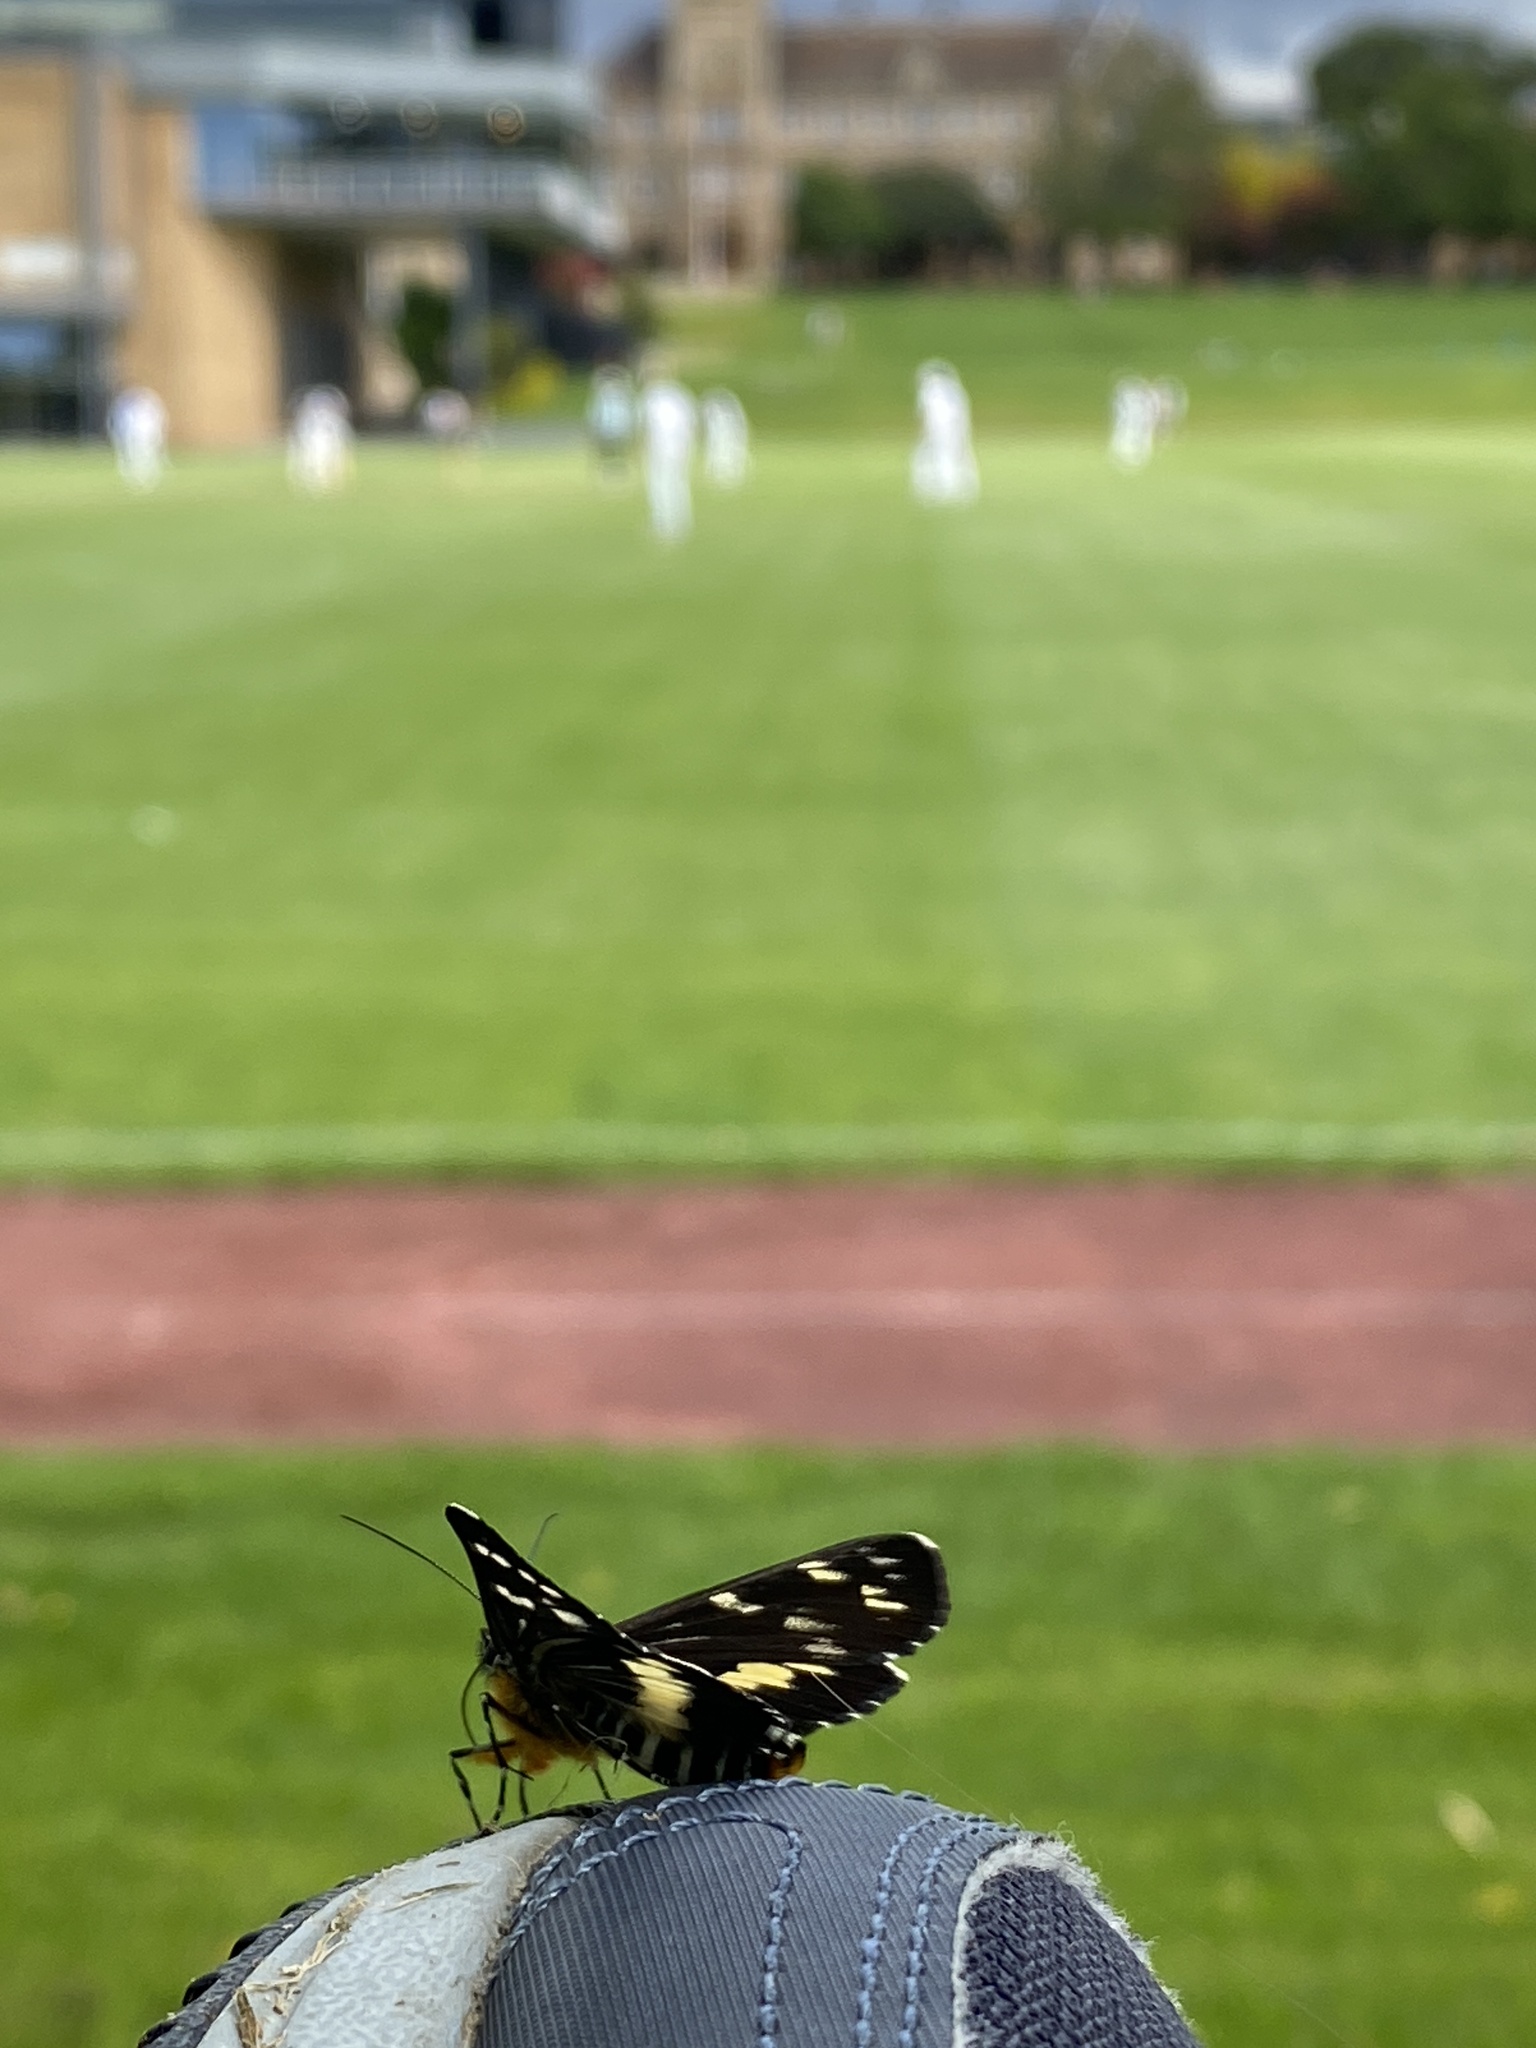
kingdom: Animalia
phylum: Arthropoda
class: Insecta
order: Lepidoptera
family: Noctuidae
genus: Cruria
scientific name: Cruria synopla
